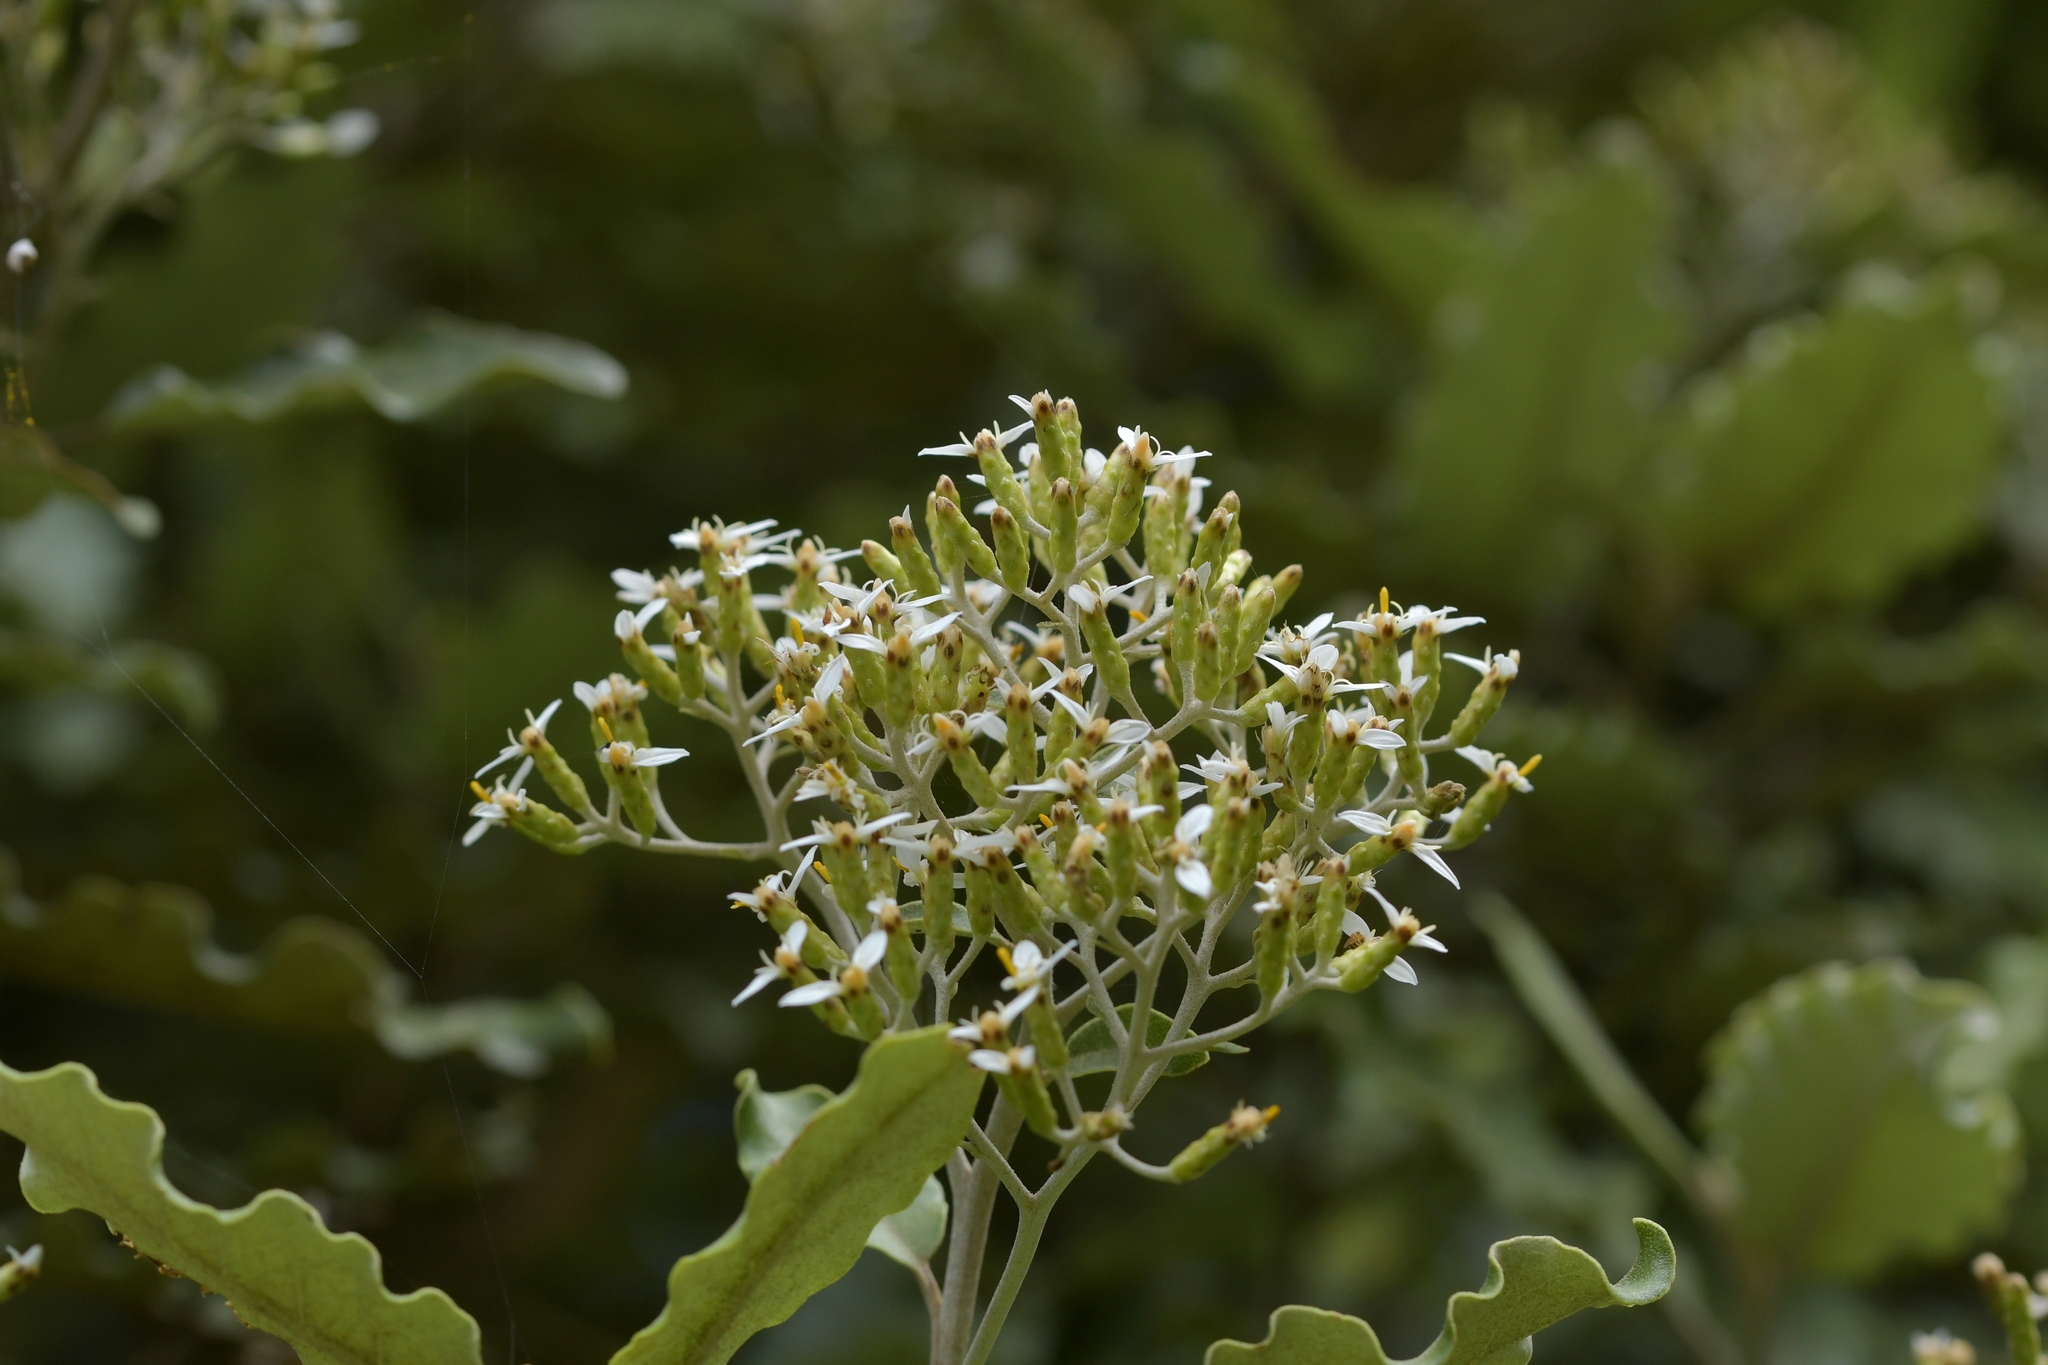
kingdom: Plantae
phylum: Tracheophyta
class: Magnoliopsida
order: Asterales
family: Asteraceae
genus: Olearia
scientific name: Olearia paniculata
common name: Akiraho
